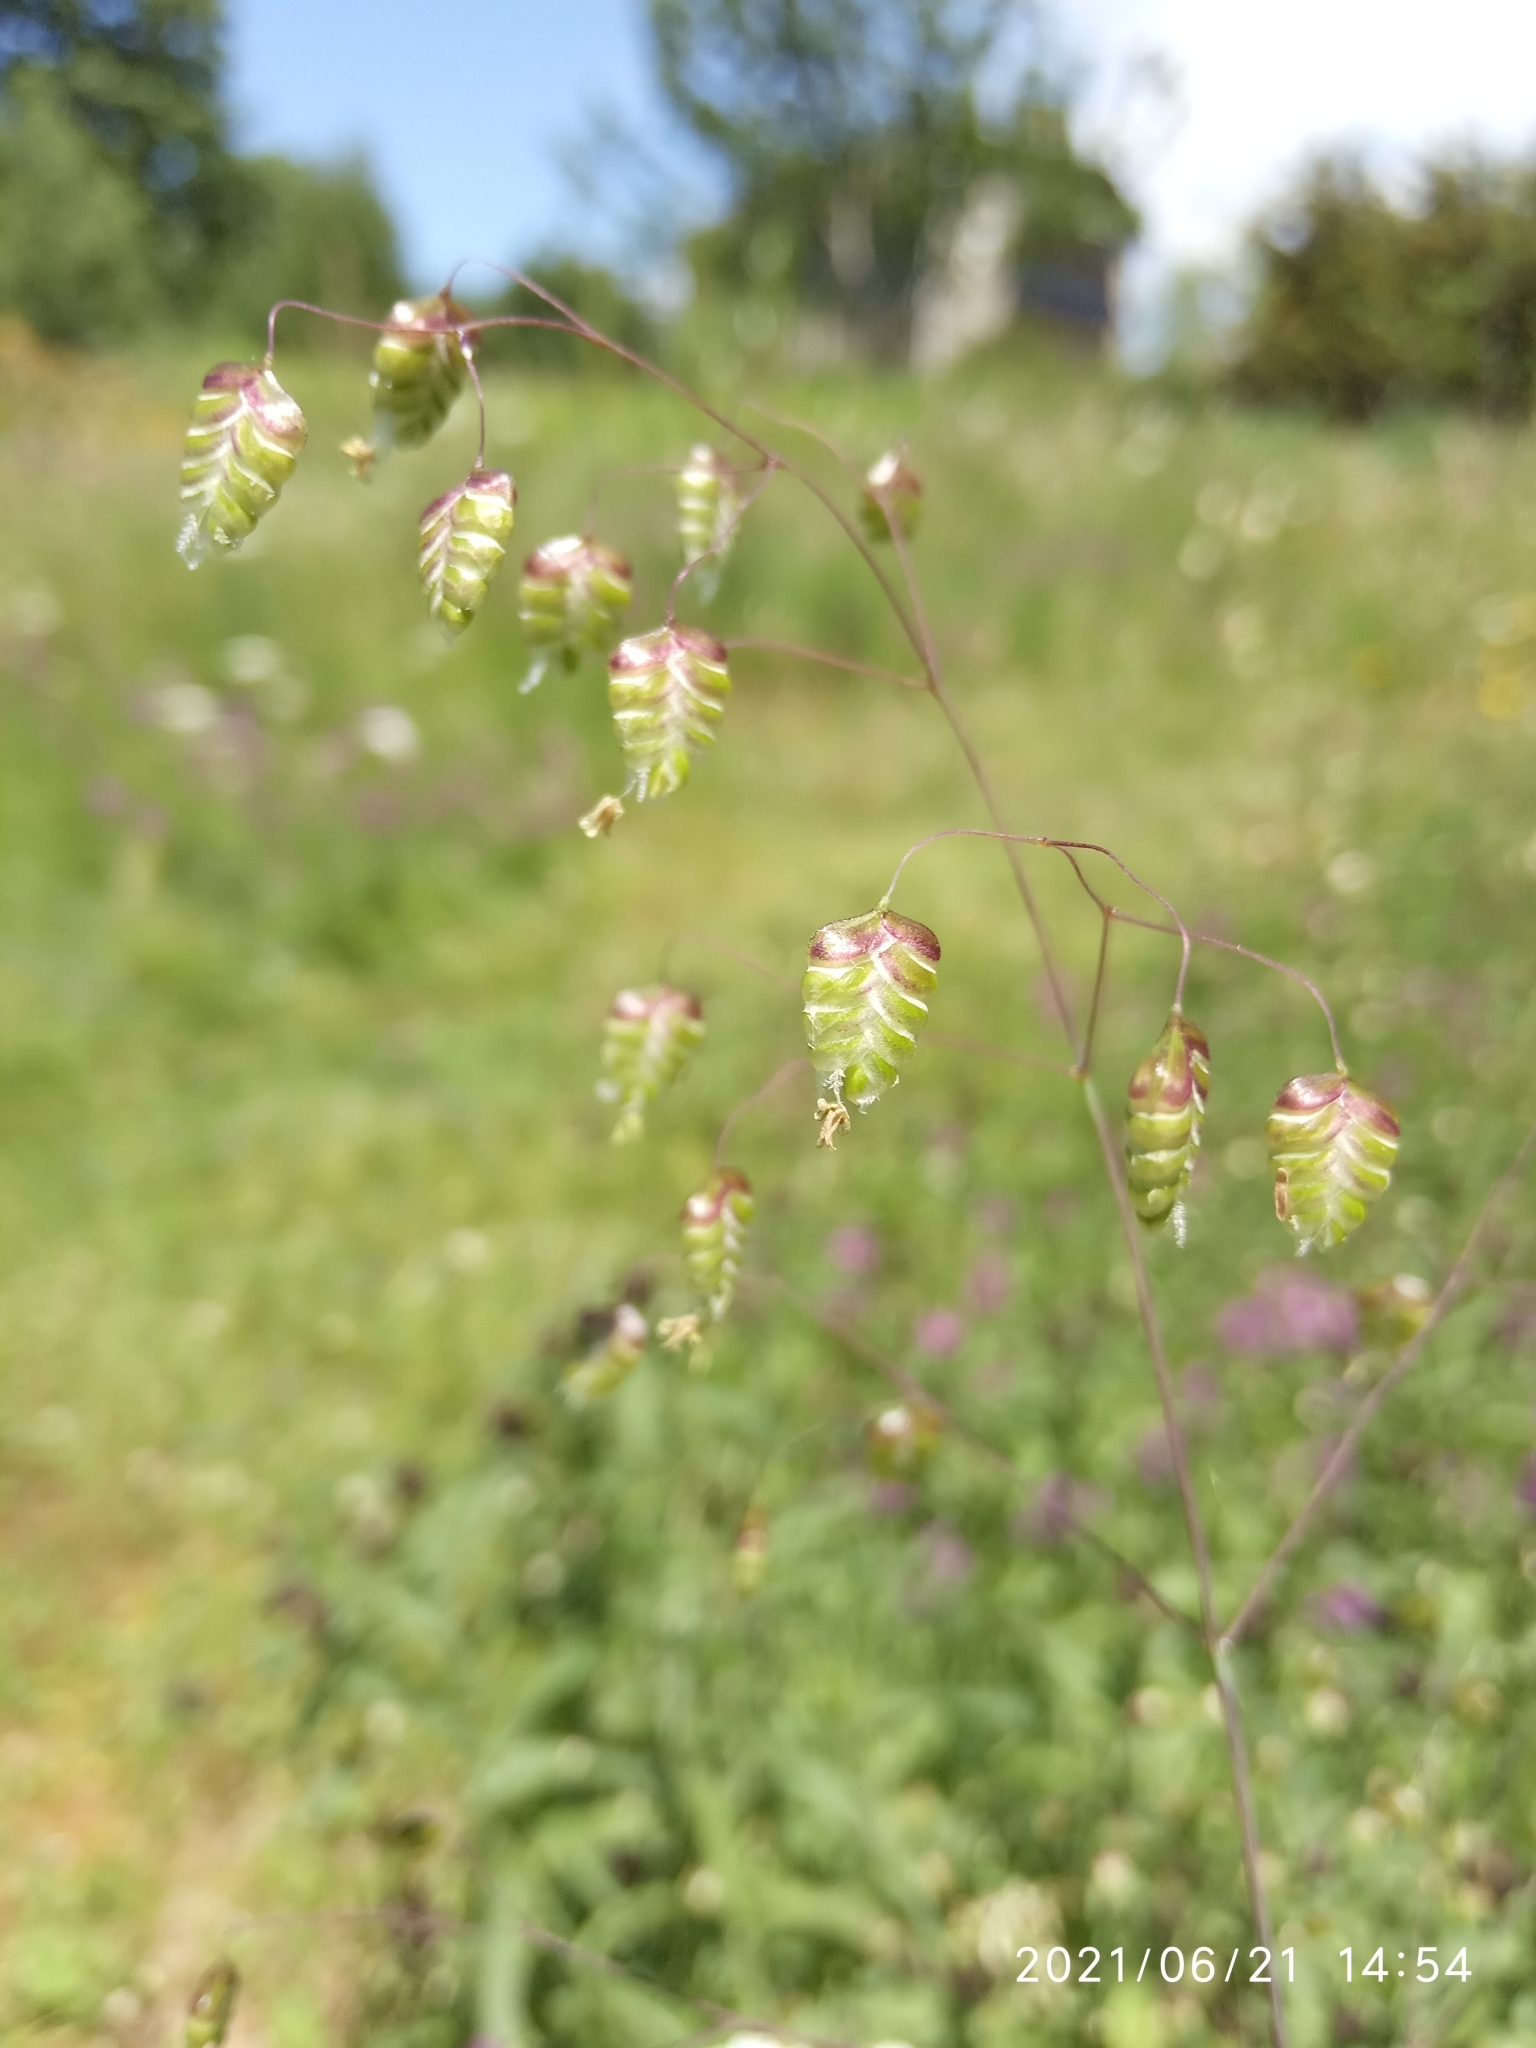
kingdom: Plantae
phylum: Tracheophyta
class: Liliopsida
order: Poales
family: Poaceae
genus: Briza
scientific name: Briza media
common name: Quaking grass
